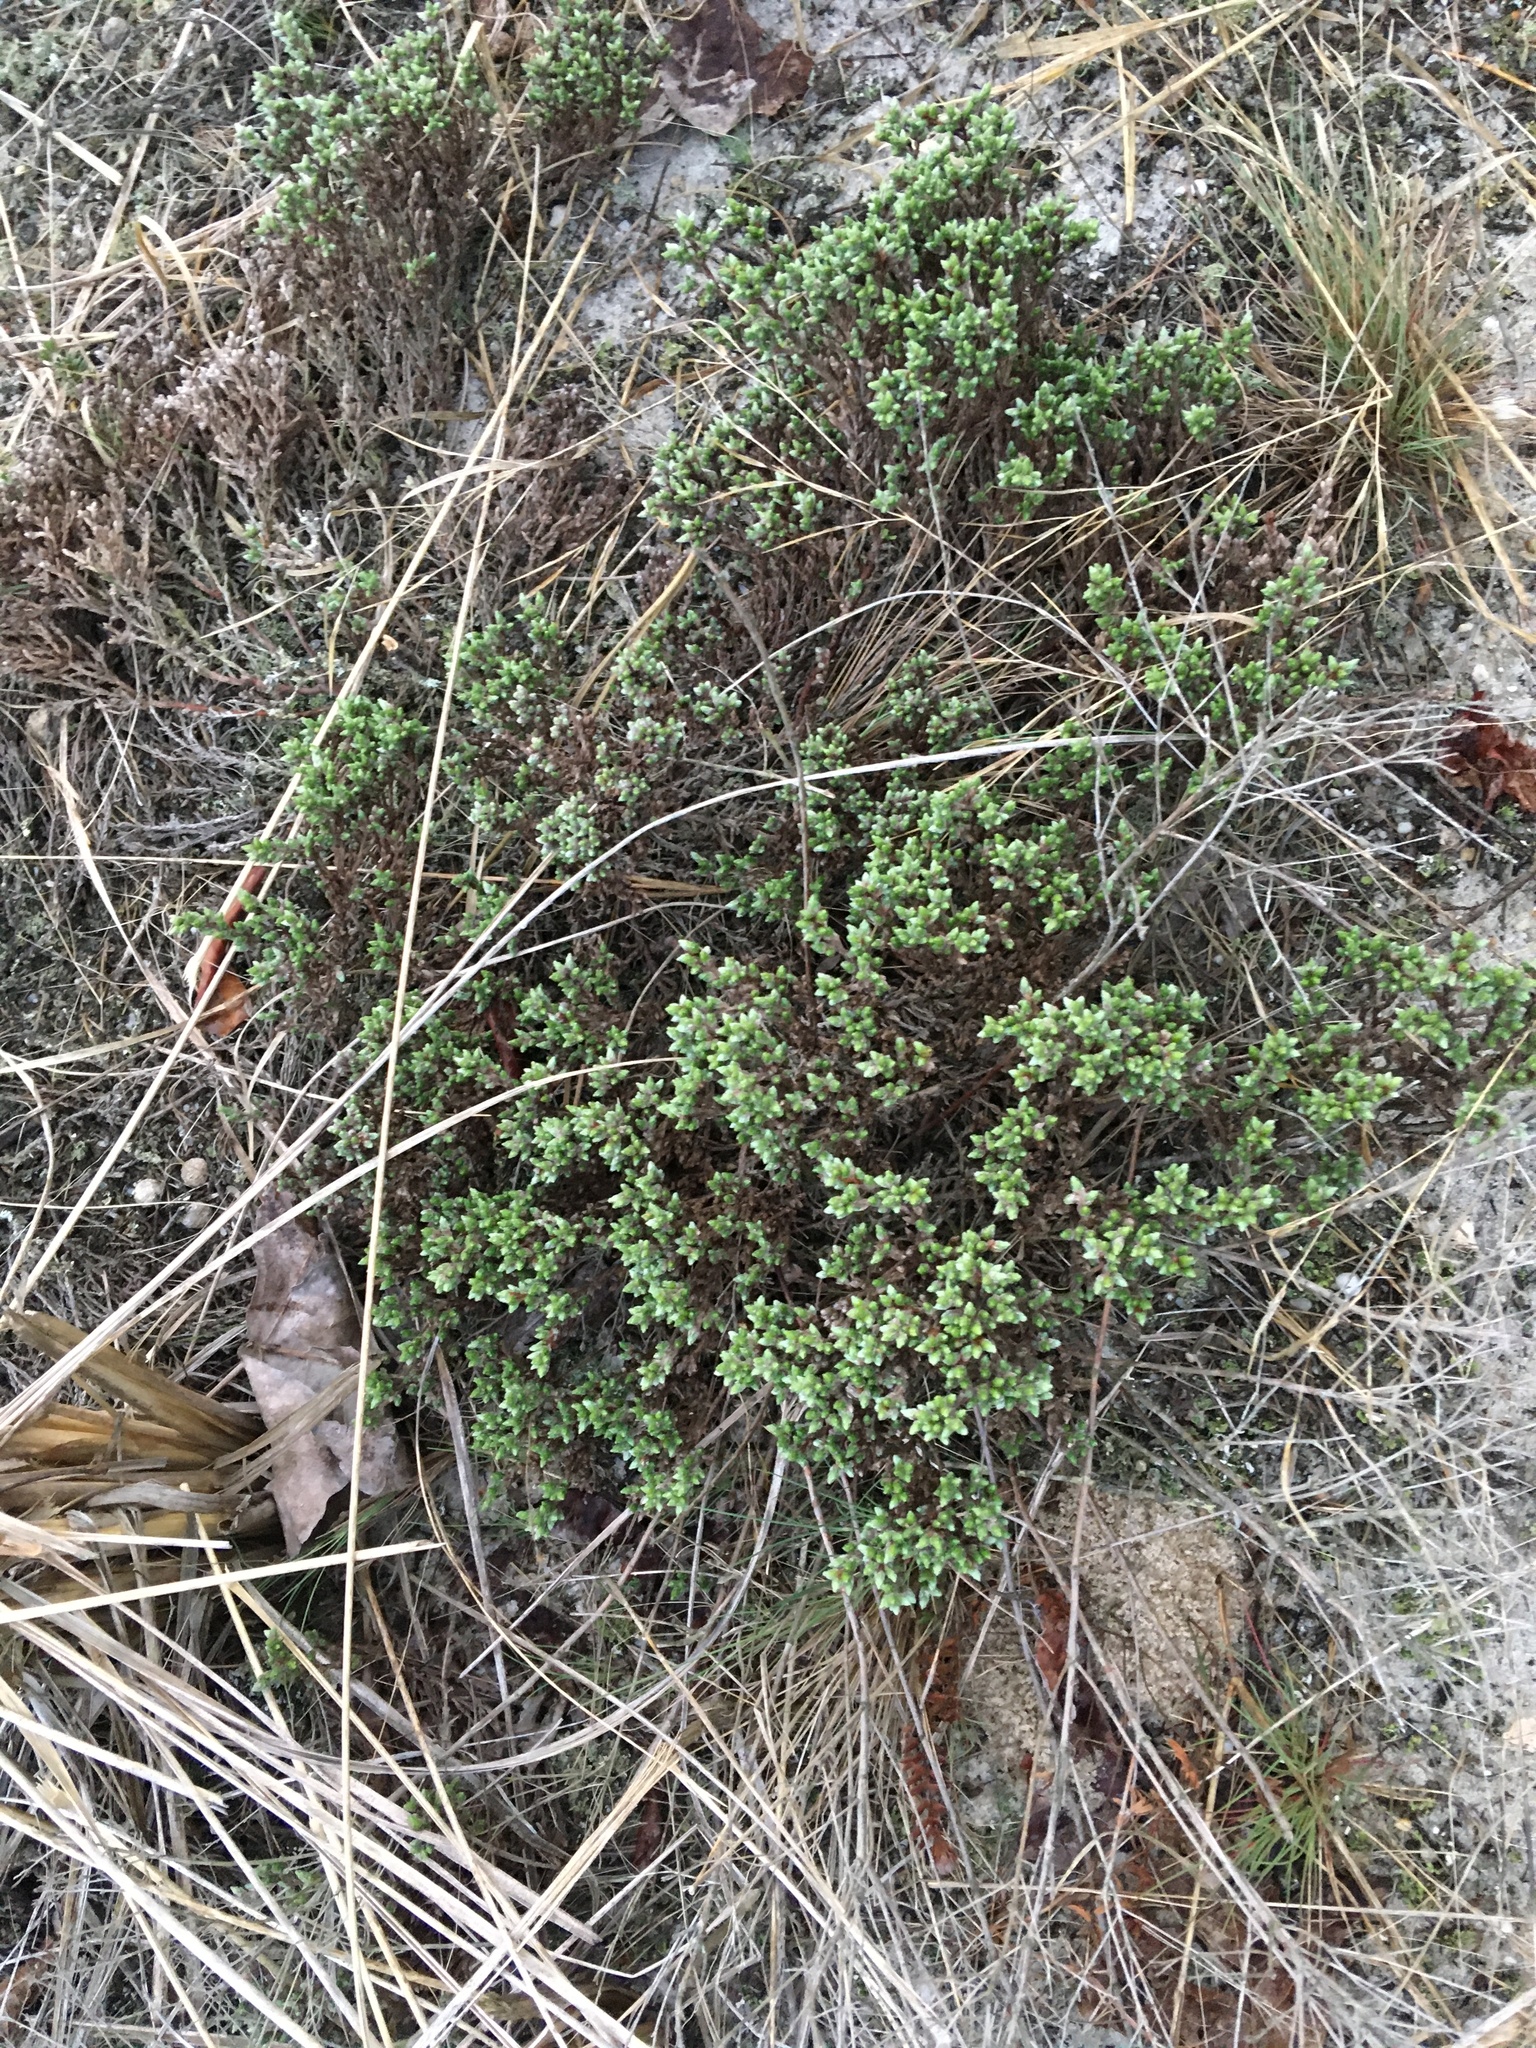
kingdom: Plantae
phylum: Tracheophyta
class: Magnoliopsida
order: Malvales
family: Cistaceae
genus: Hudsonia
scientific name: Hudsonia tomentosa
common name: Beach-heath
